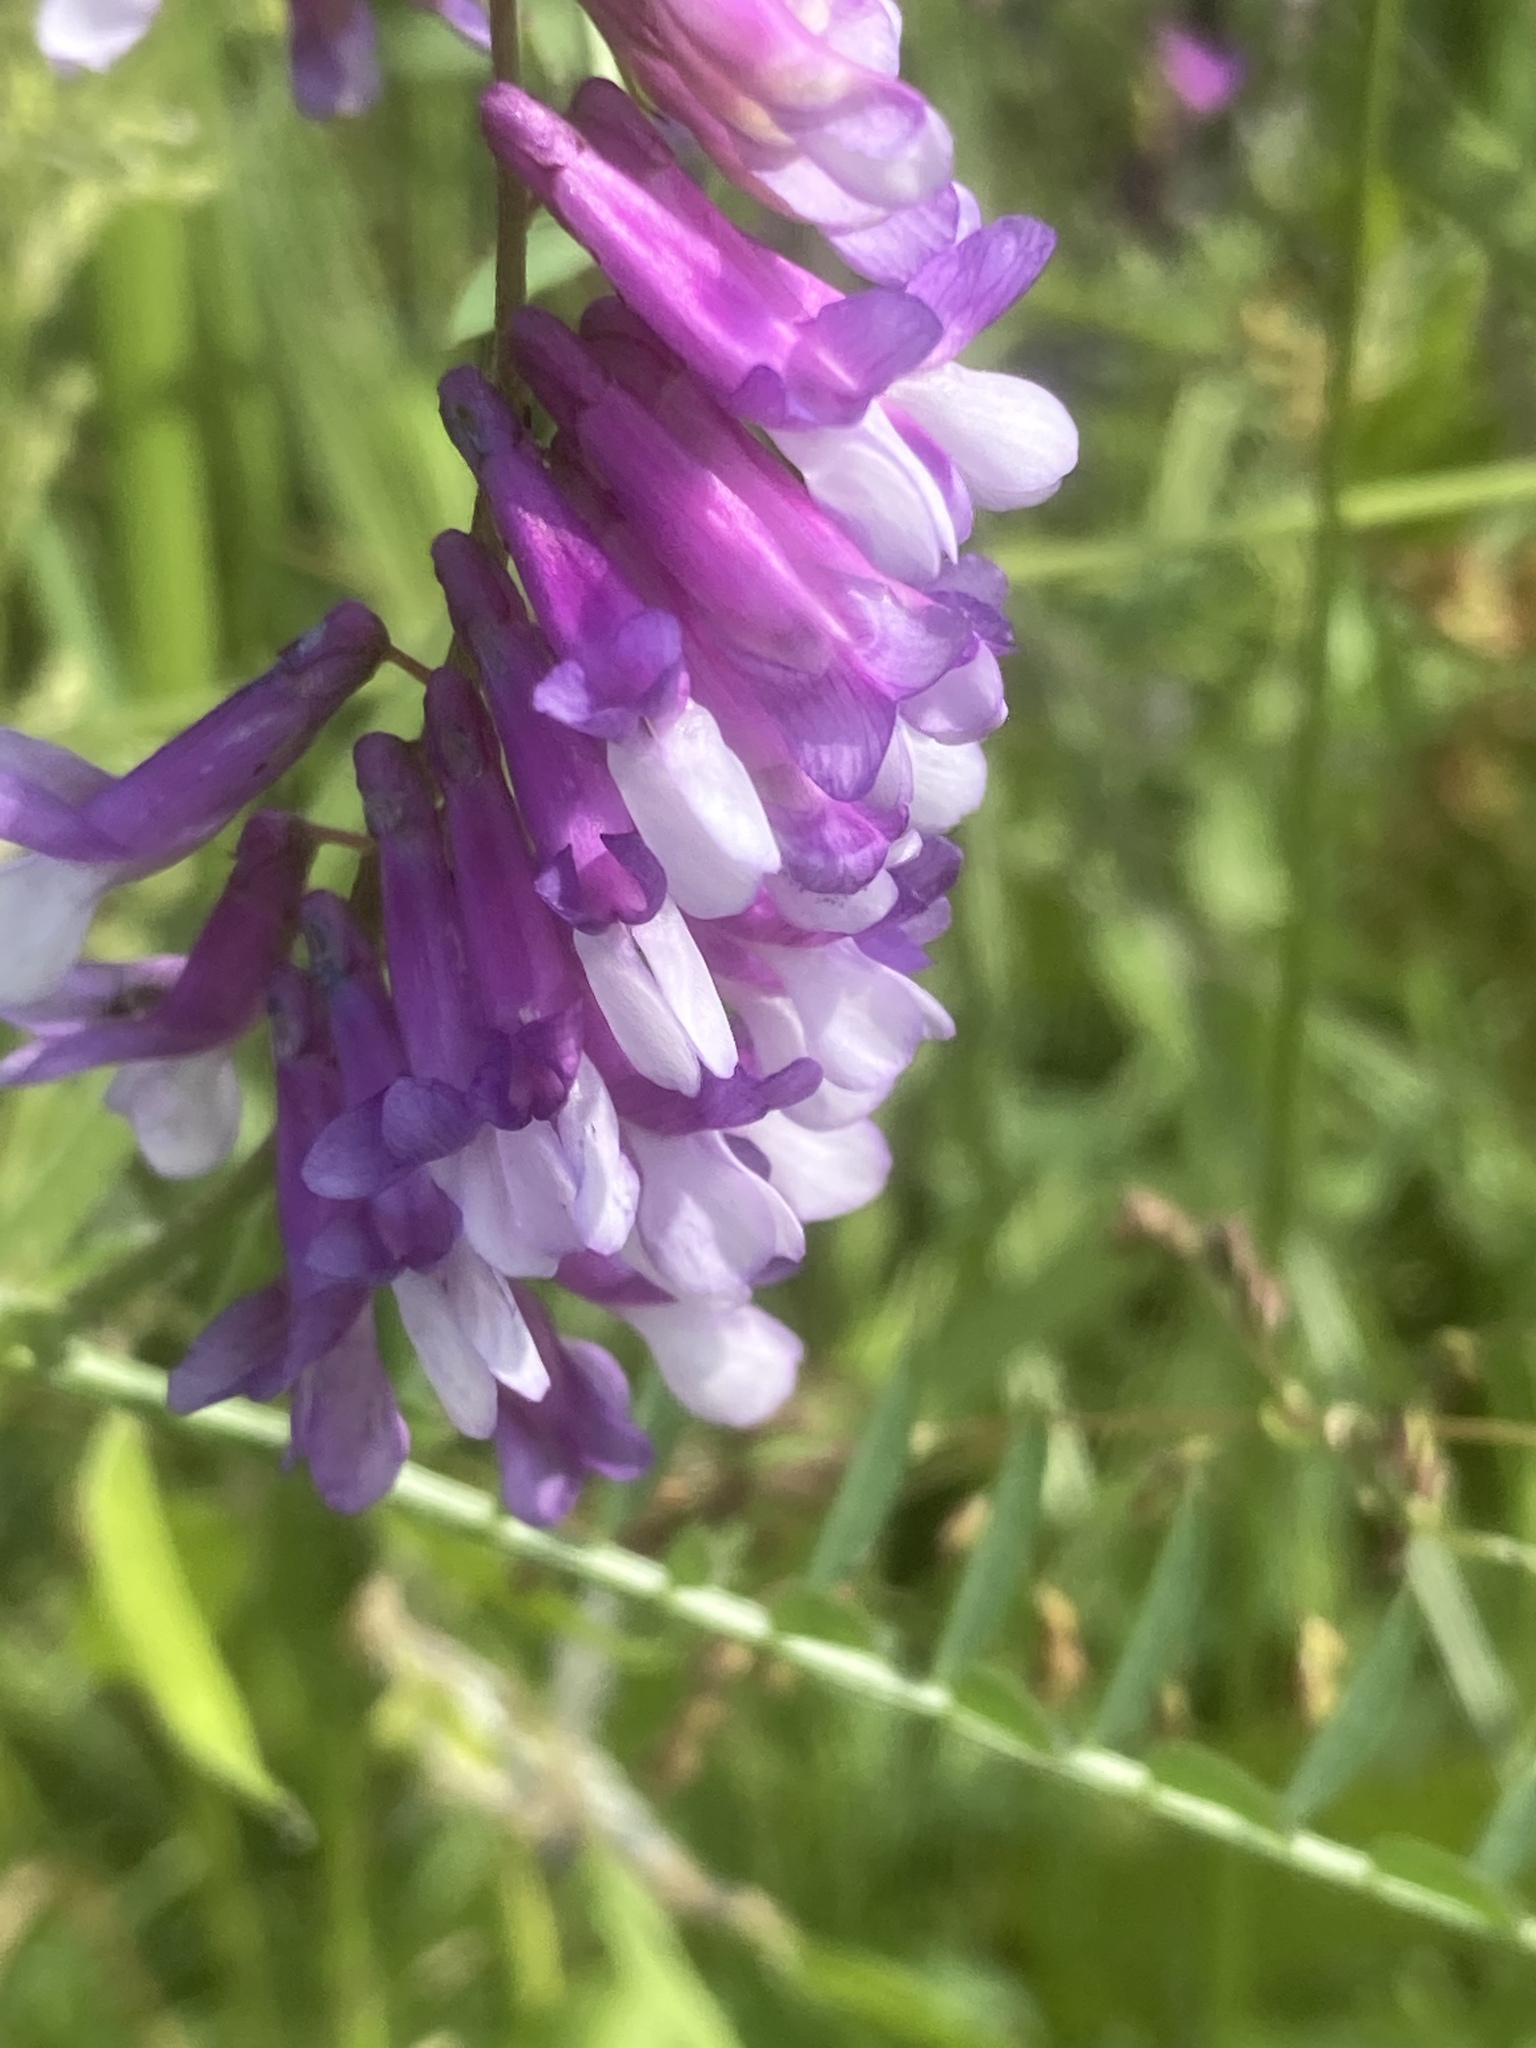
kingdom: Plantae
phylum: Tracheophyta
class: Magnoliopsida
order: Fabales
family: Fabaceae
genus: Vicia
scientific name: Vicia villosa
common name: Fodder vetch
